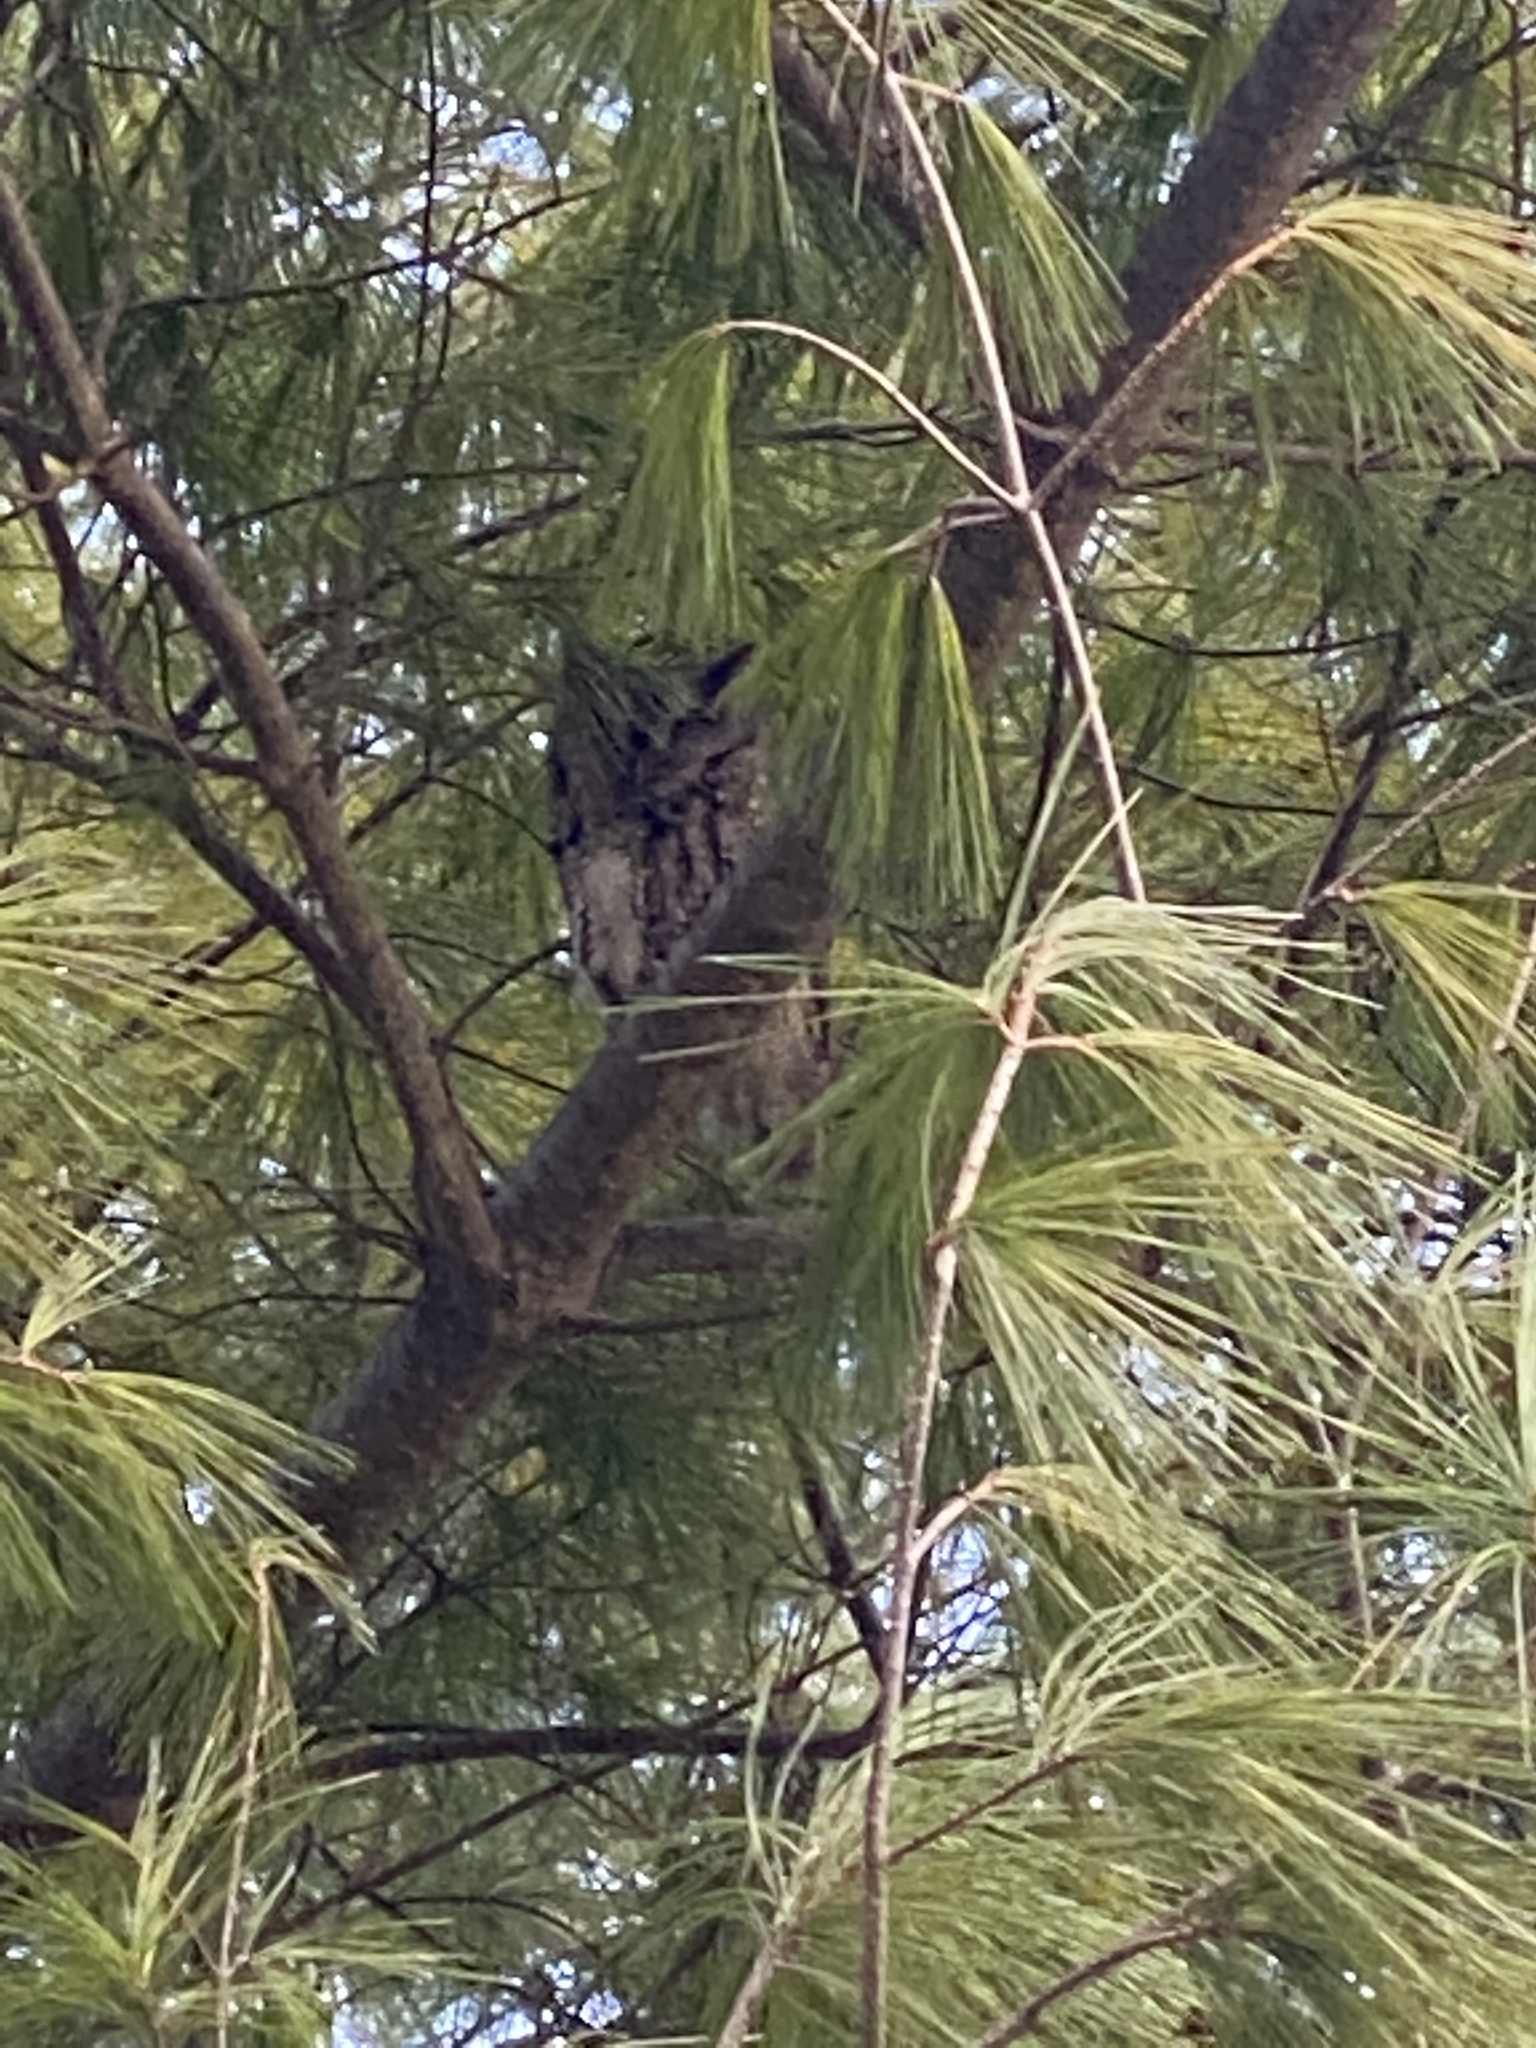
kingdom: Animalia
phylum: Chordata
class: Aves
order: Strigiformes
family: Strigidae
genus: Megascops
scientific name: Megascops asio
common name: Eastern screech-owl
